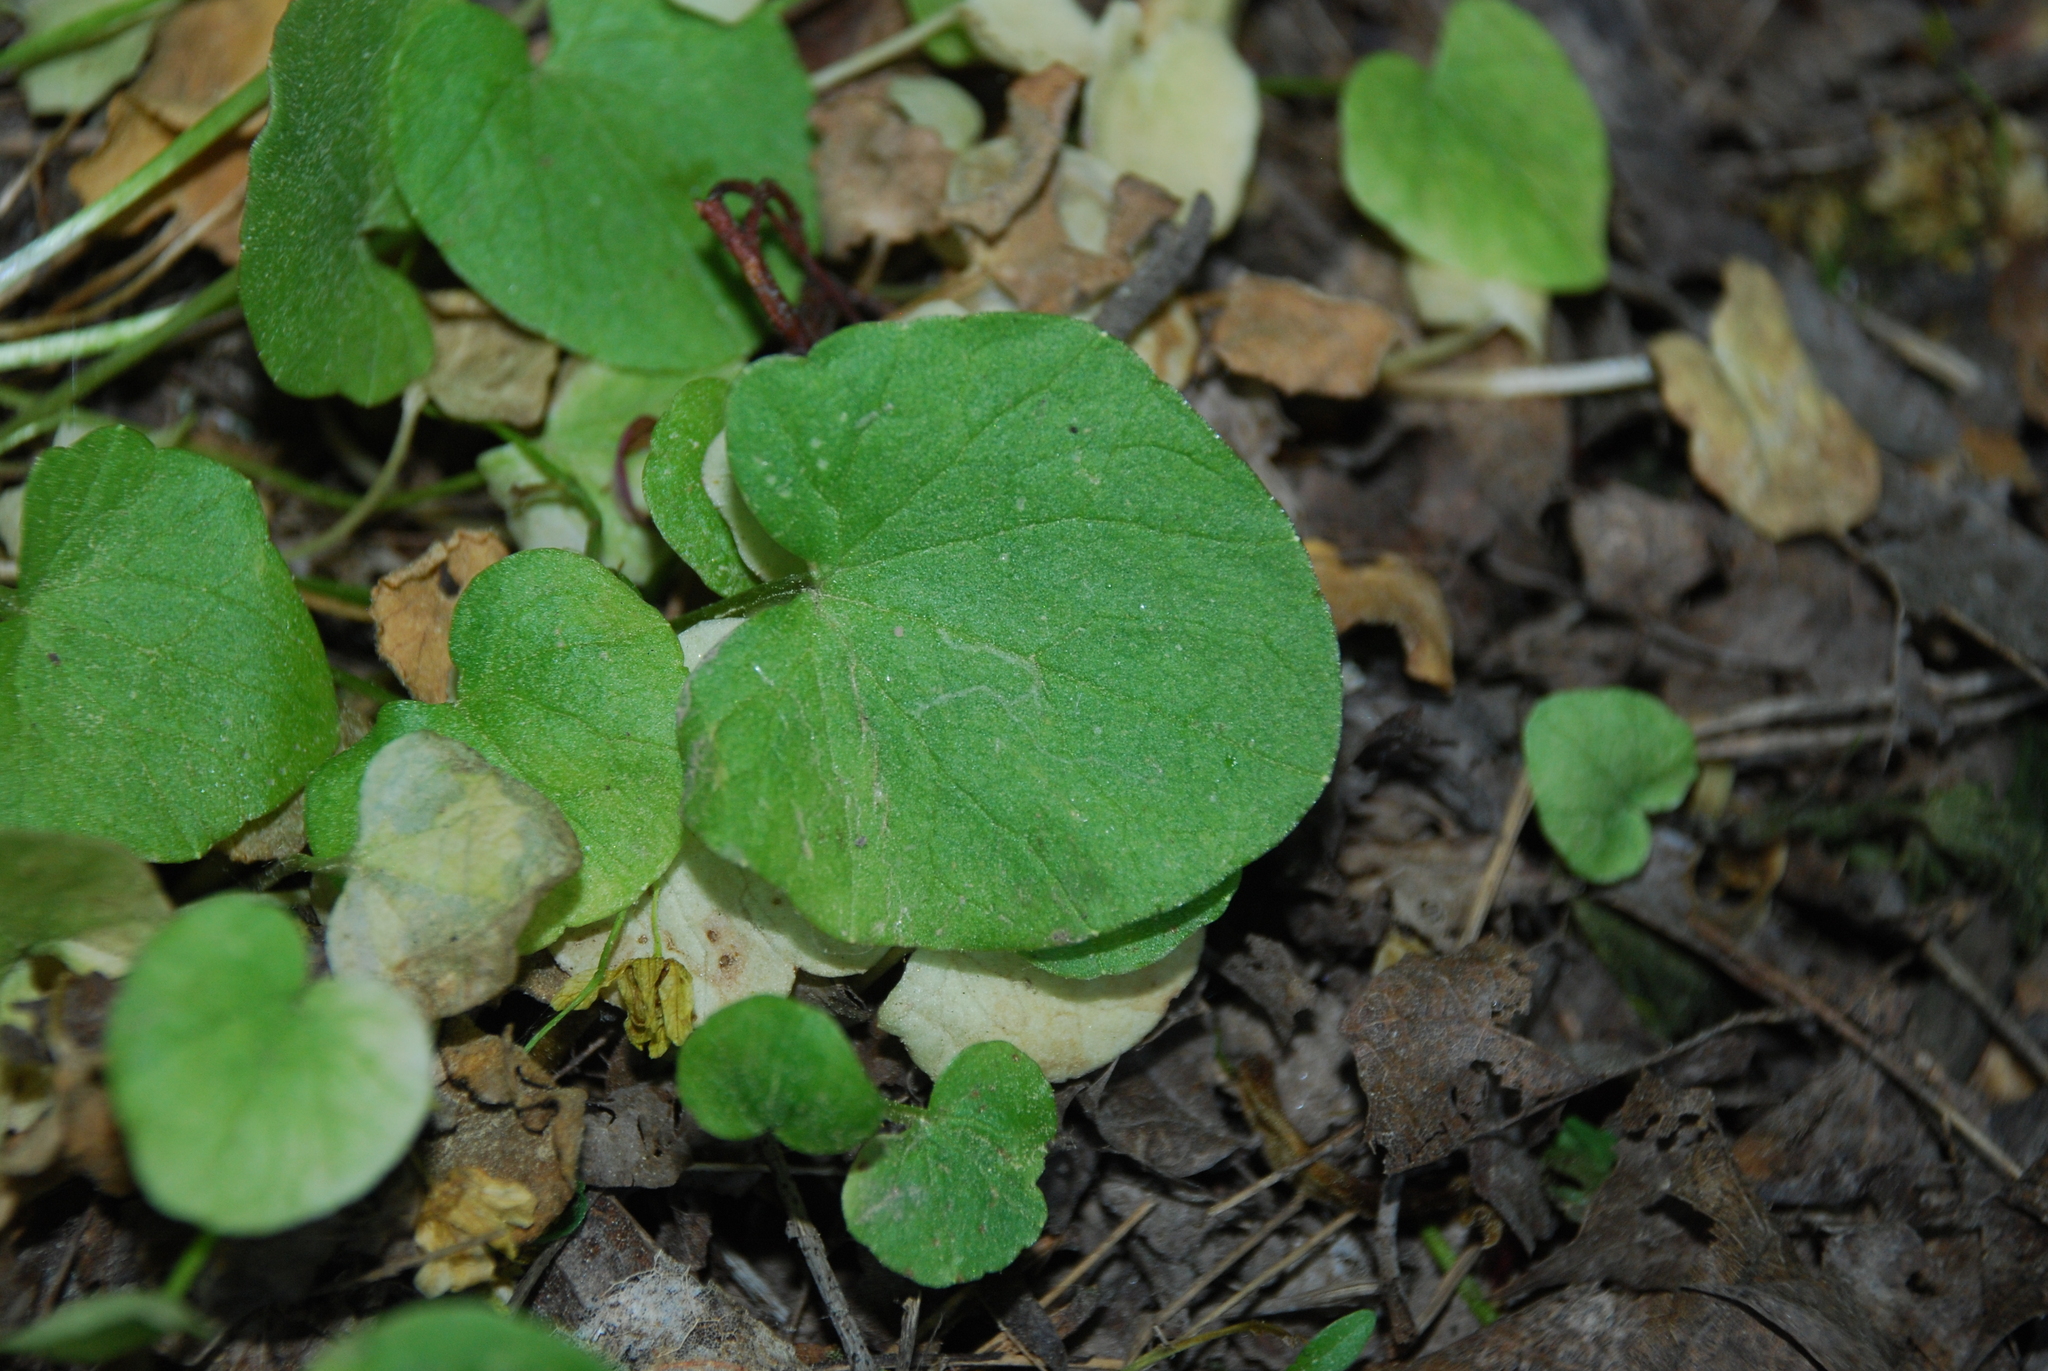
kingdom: Plantae
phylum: Tracheophyta
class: Magnoliopsida
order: Ranunculales
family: Ranunculaceae
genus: Ficaria
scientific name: Ficaria verna
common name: Lesser celandine
